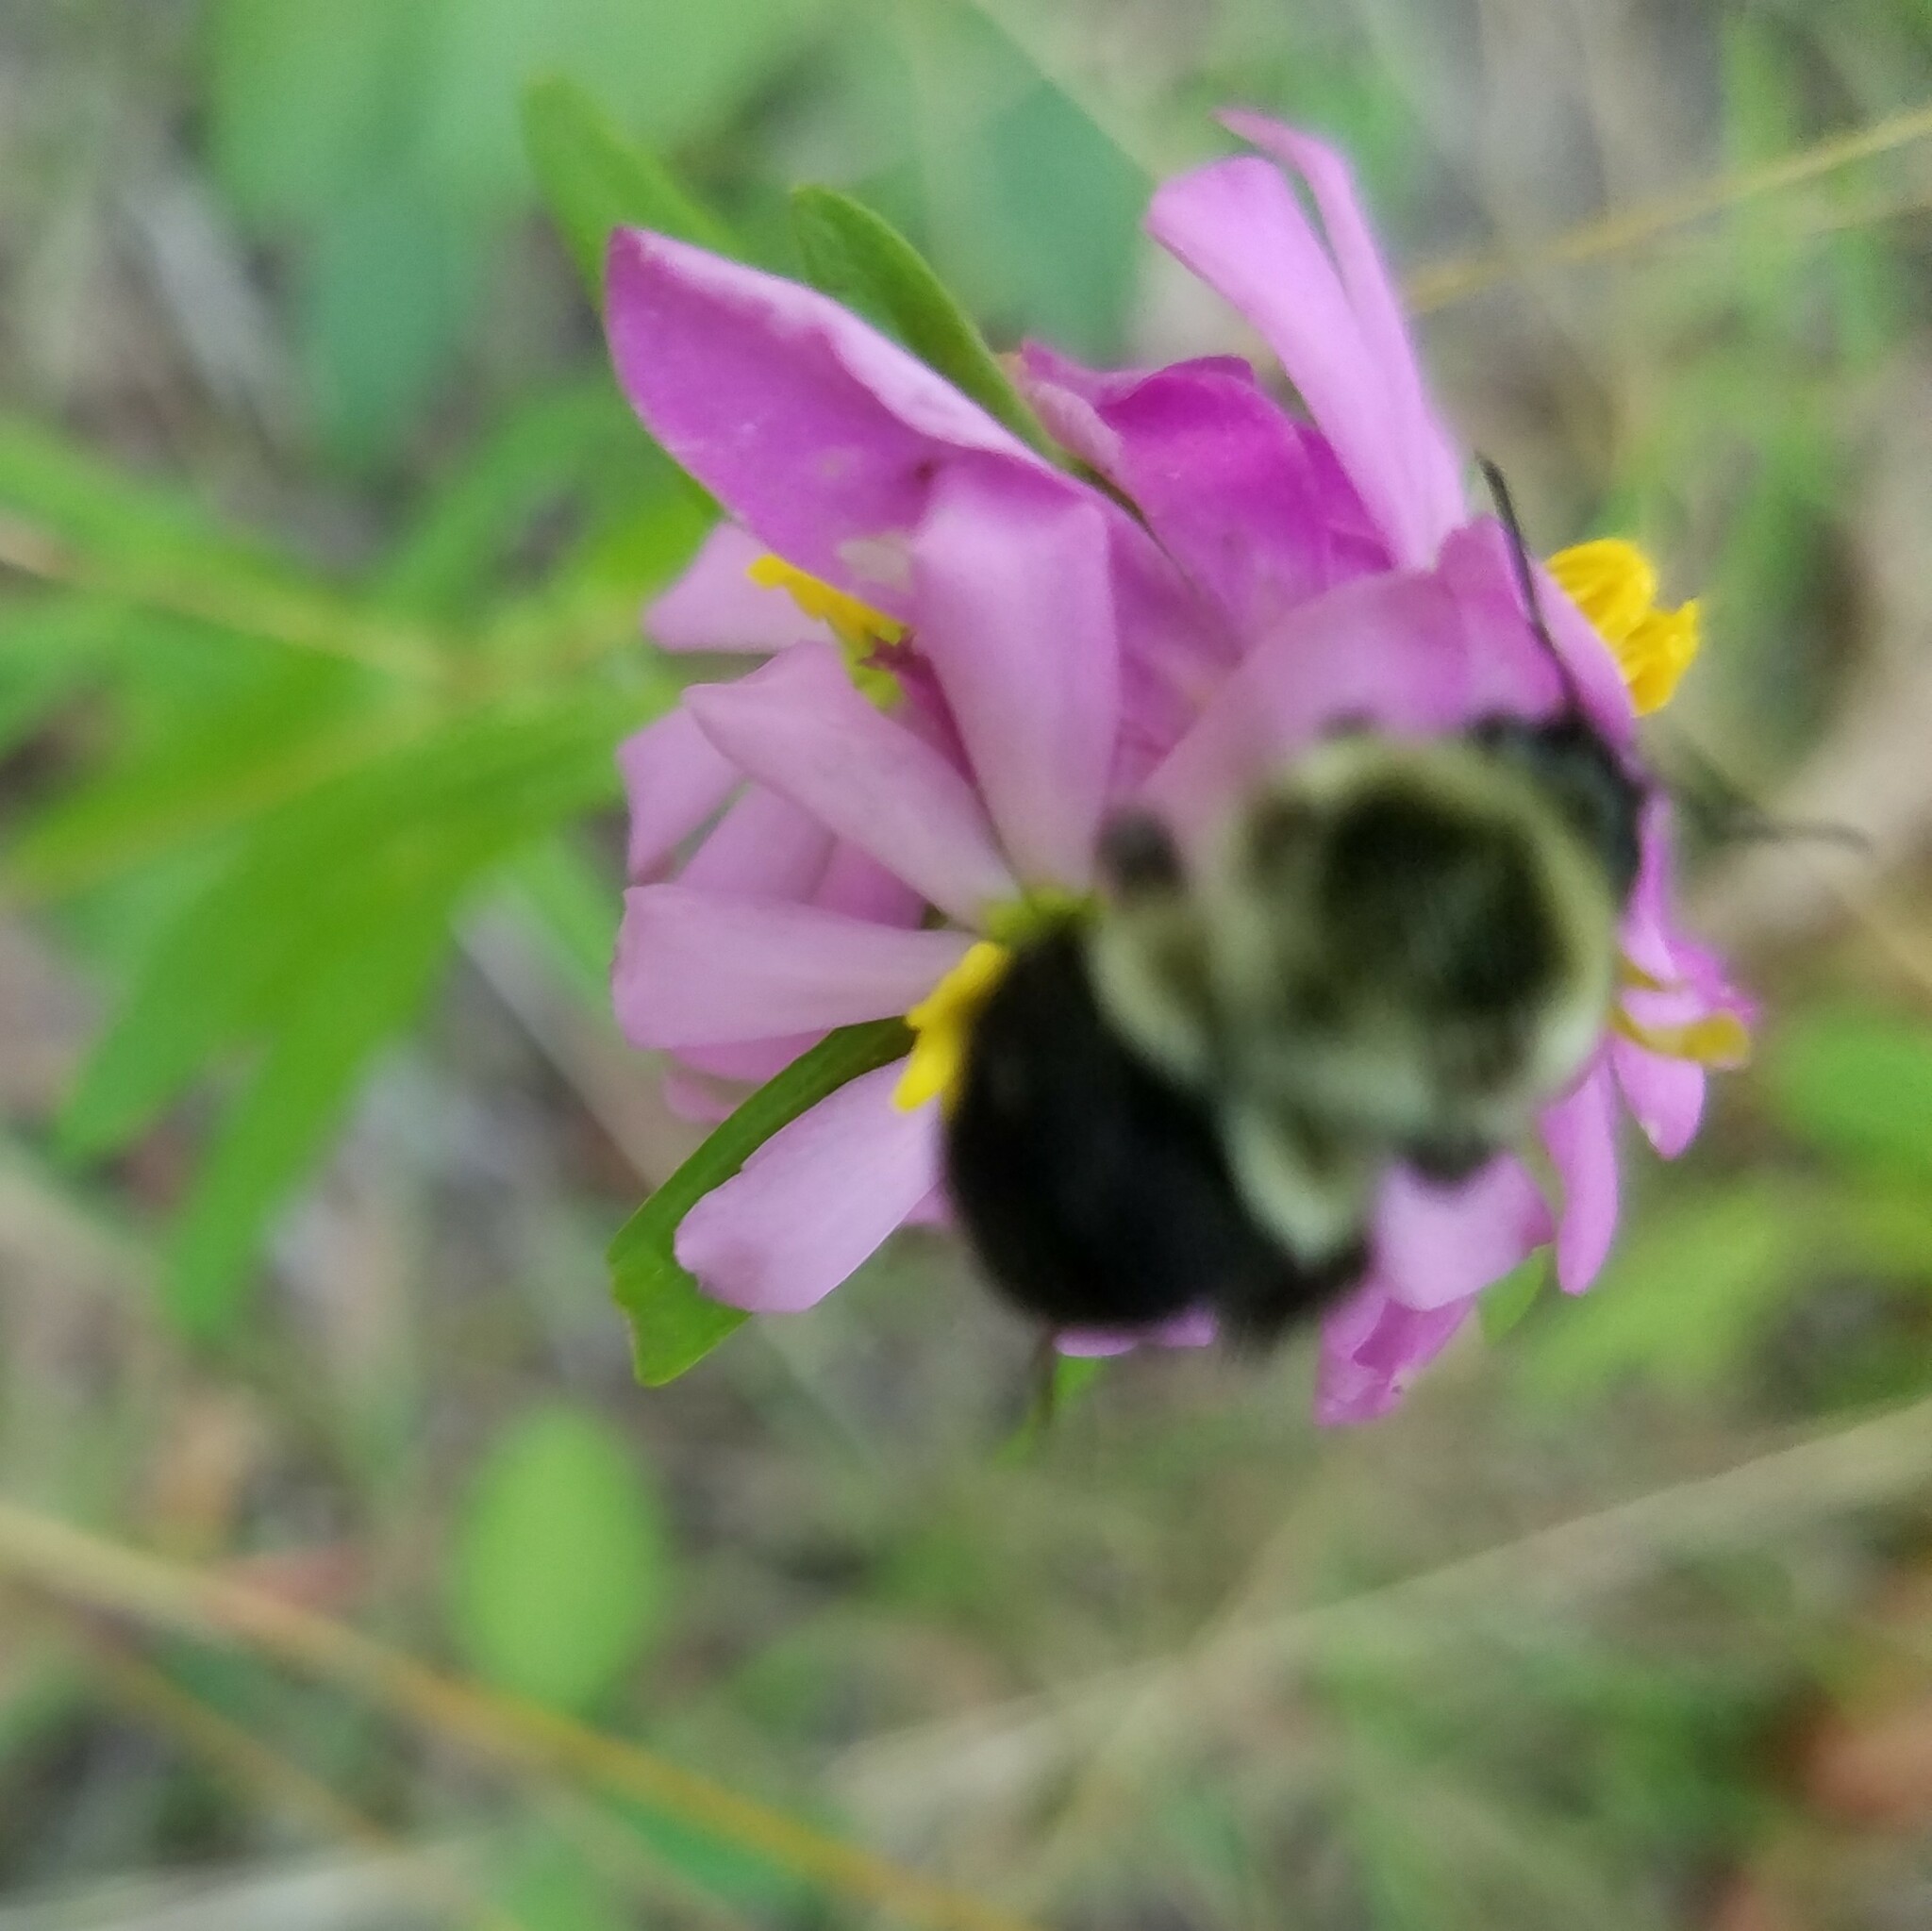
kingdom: Animalia
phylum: Arthropoda
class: Insecta
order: Hymenoptera
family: Apidae
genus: Bombus
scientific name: Bombus impatiens
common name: Common eastern bumble bee
